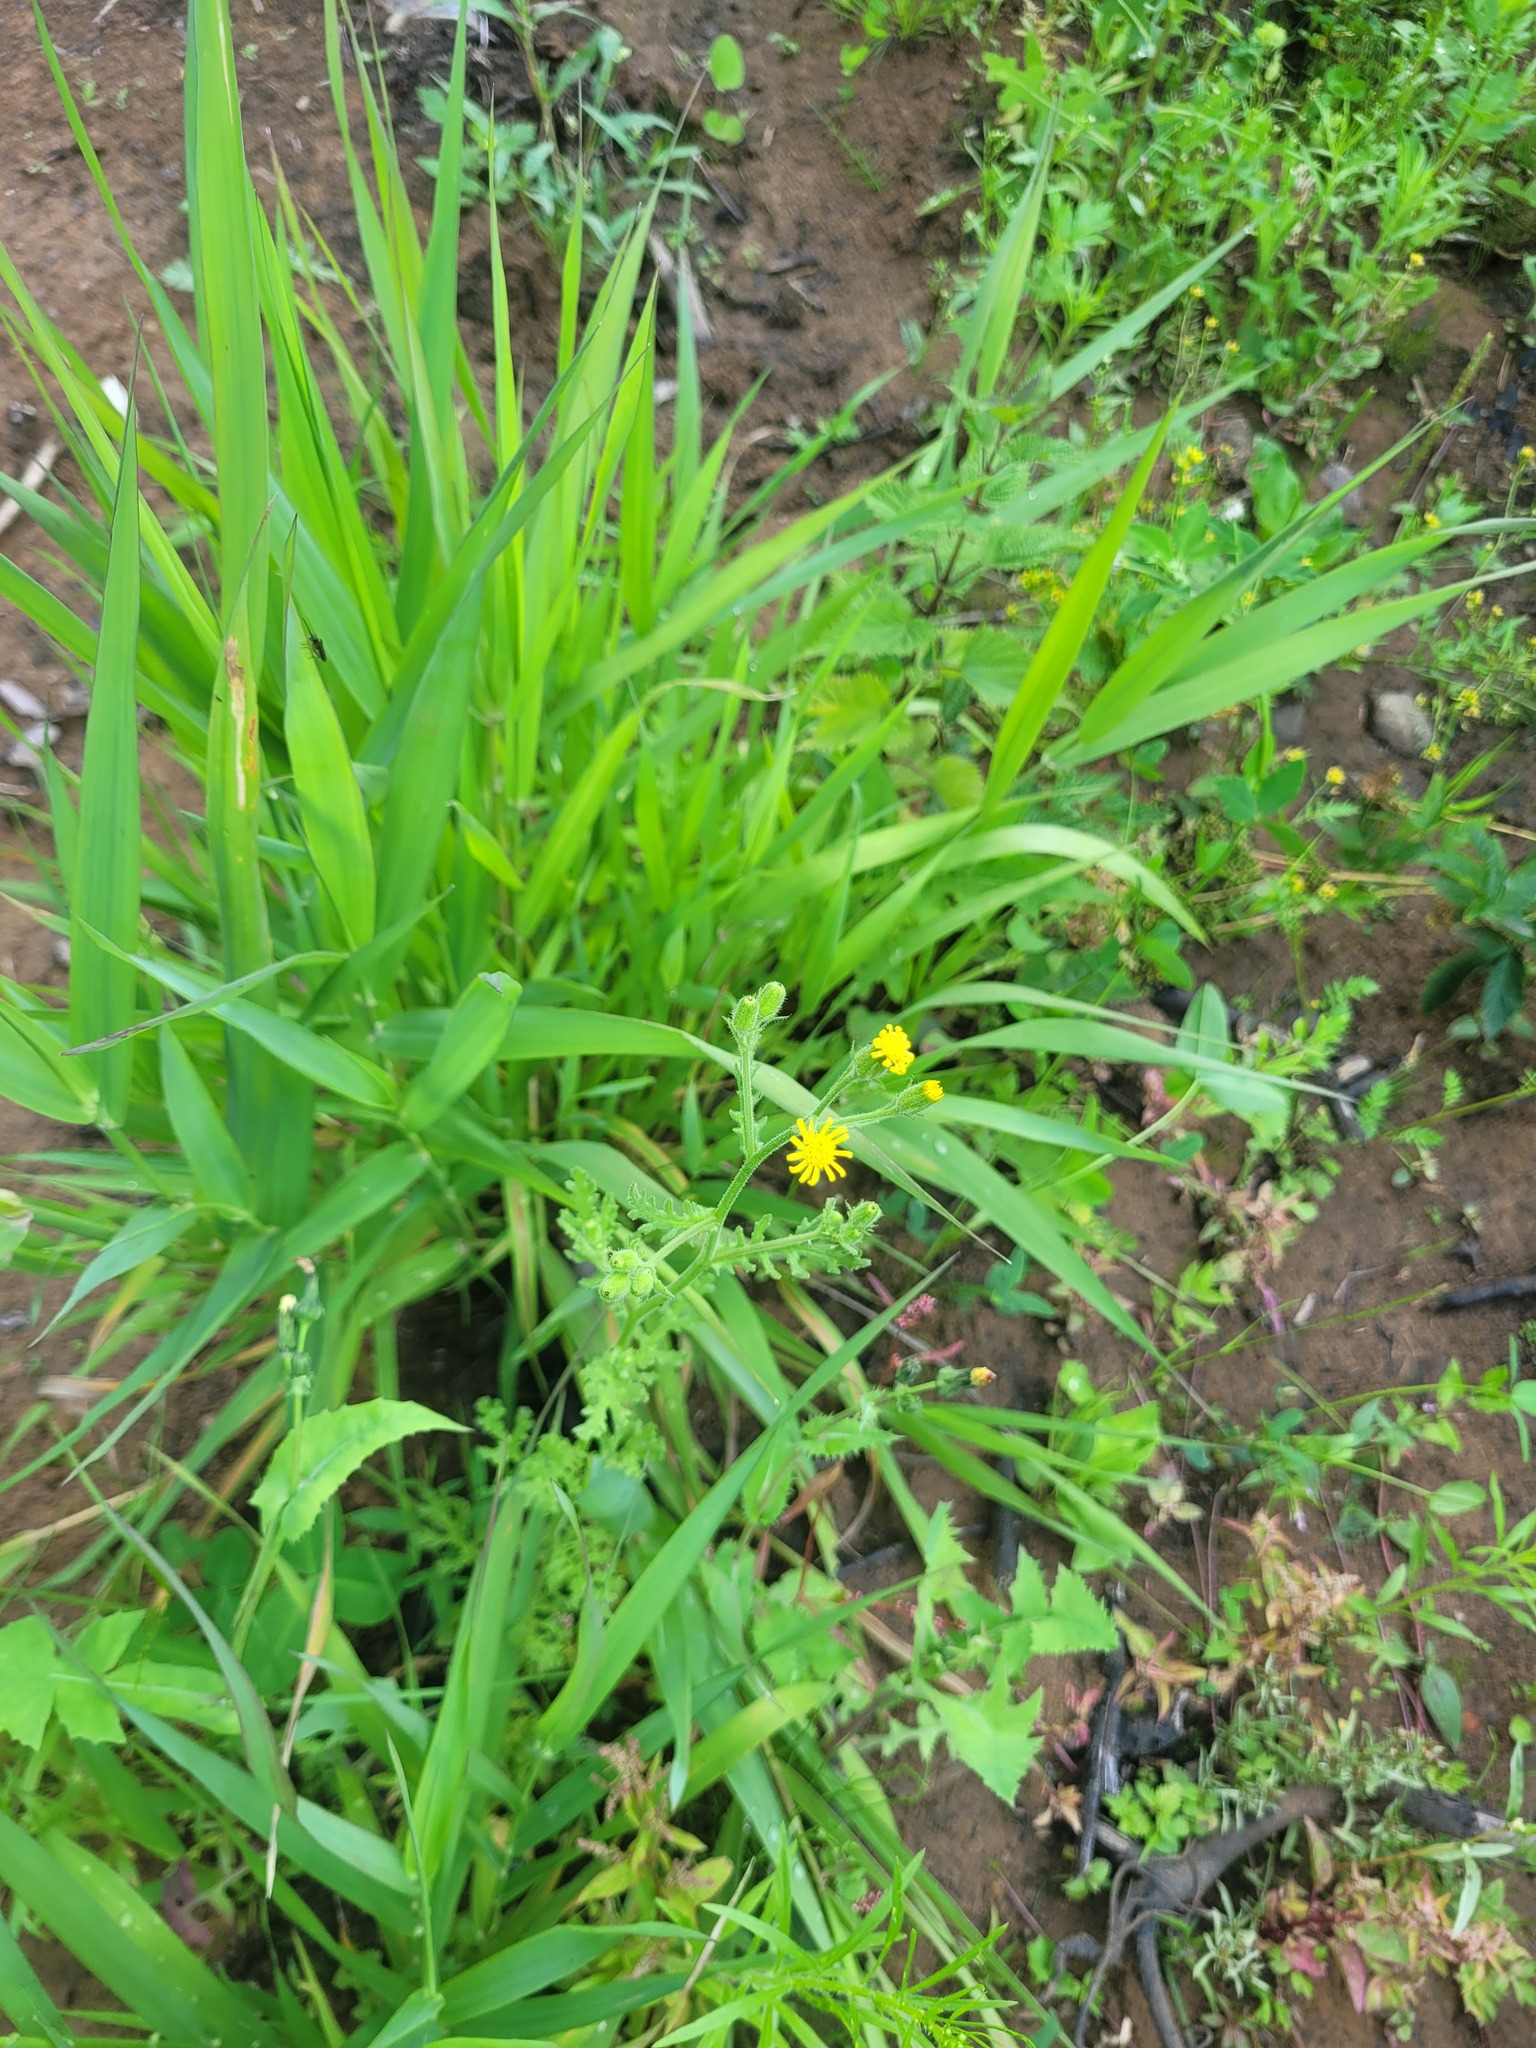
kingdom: Plantae
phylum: Tracheophyta
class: Magnoliopsida
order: Asterales
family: Asteraceae
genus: Senecio
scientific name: Senecio viscosus
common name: Sticky groundsel
